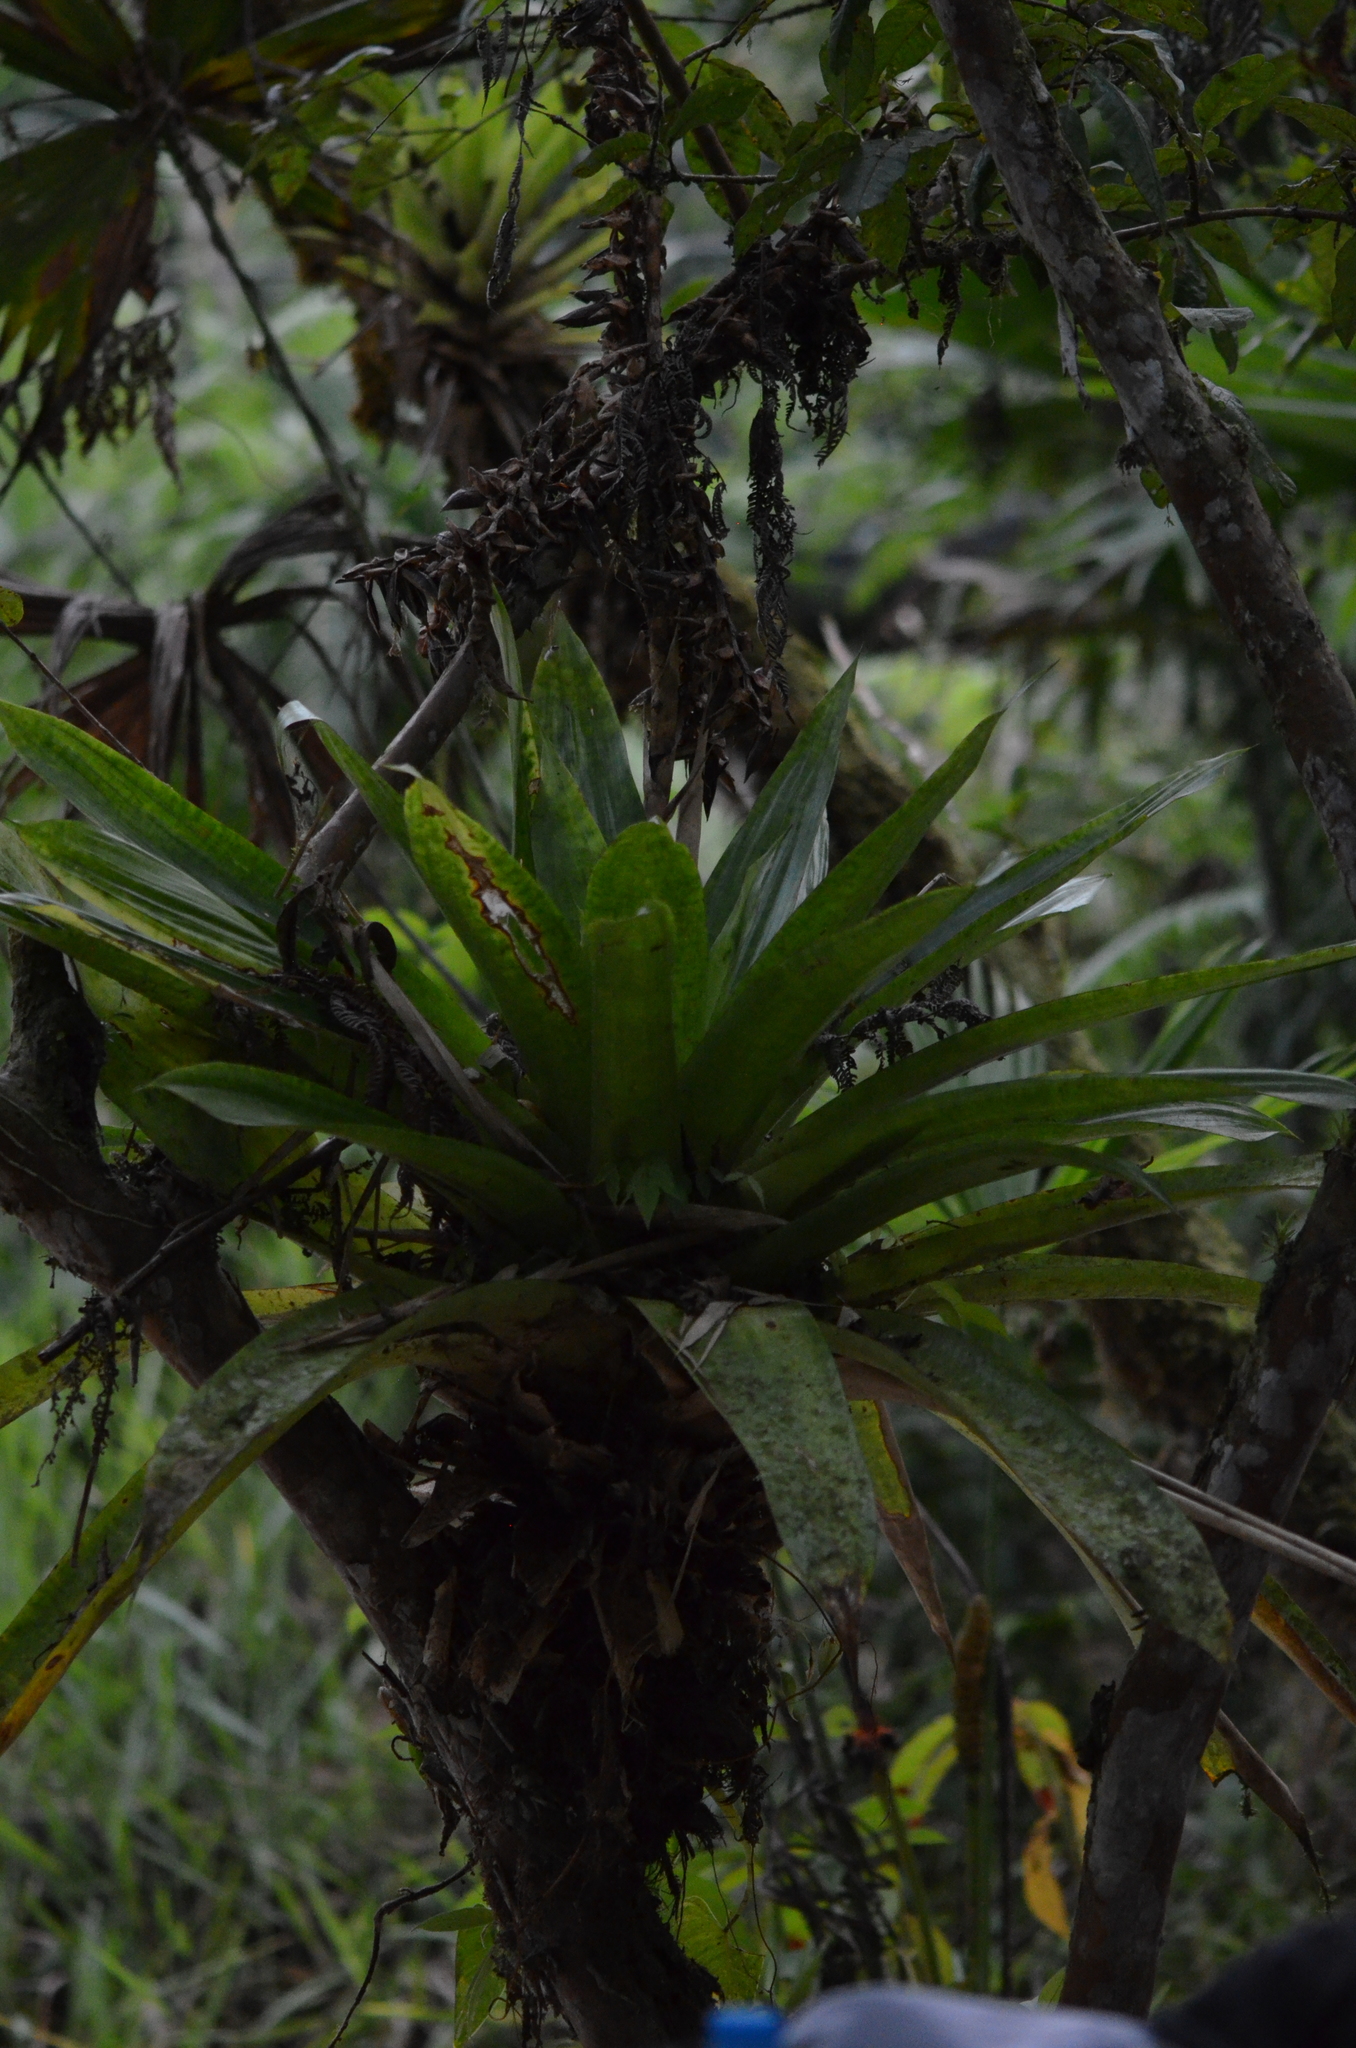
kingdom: Plantae
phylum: Tracheophyta
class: Liliopsida
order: Poales
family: Bromeliaceae
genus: Werauhia
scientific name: Werauhia kupperiana
